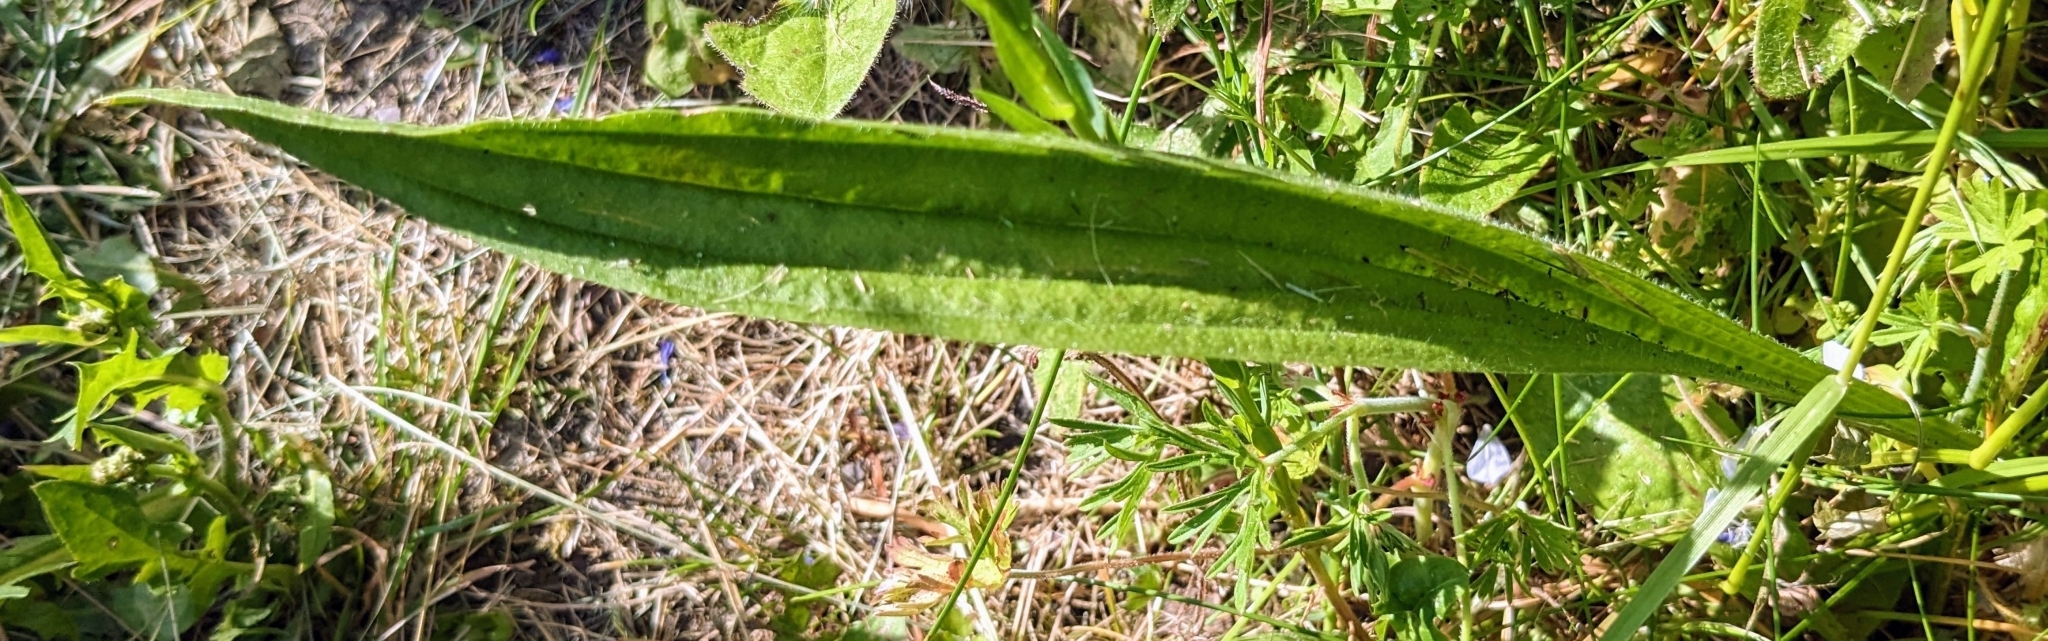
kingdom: Plantae
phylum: Tracheophyta
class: Magnoliopsida
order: Lamiales
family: Plantaginaceae
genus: Plantago
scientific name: Plantago lanceolata
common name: Ribwort plantain
